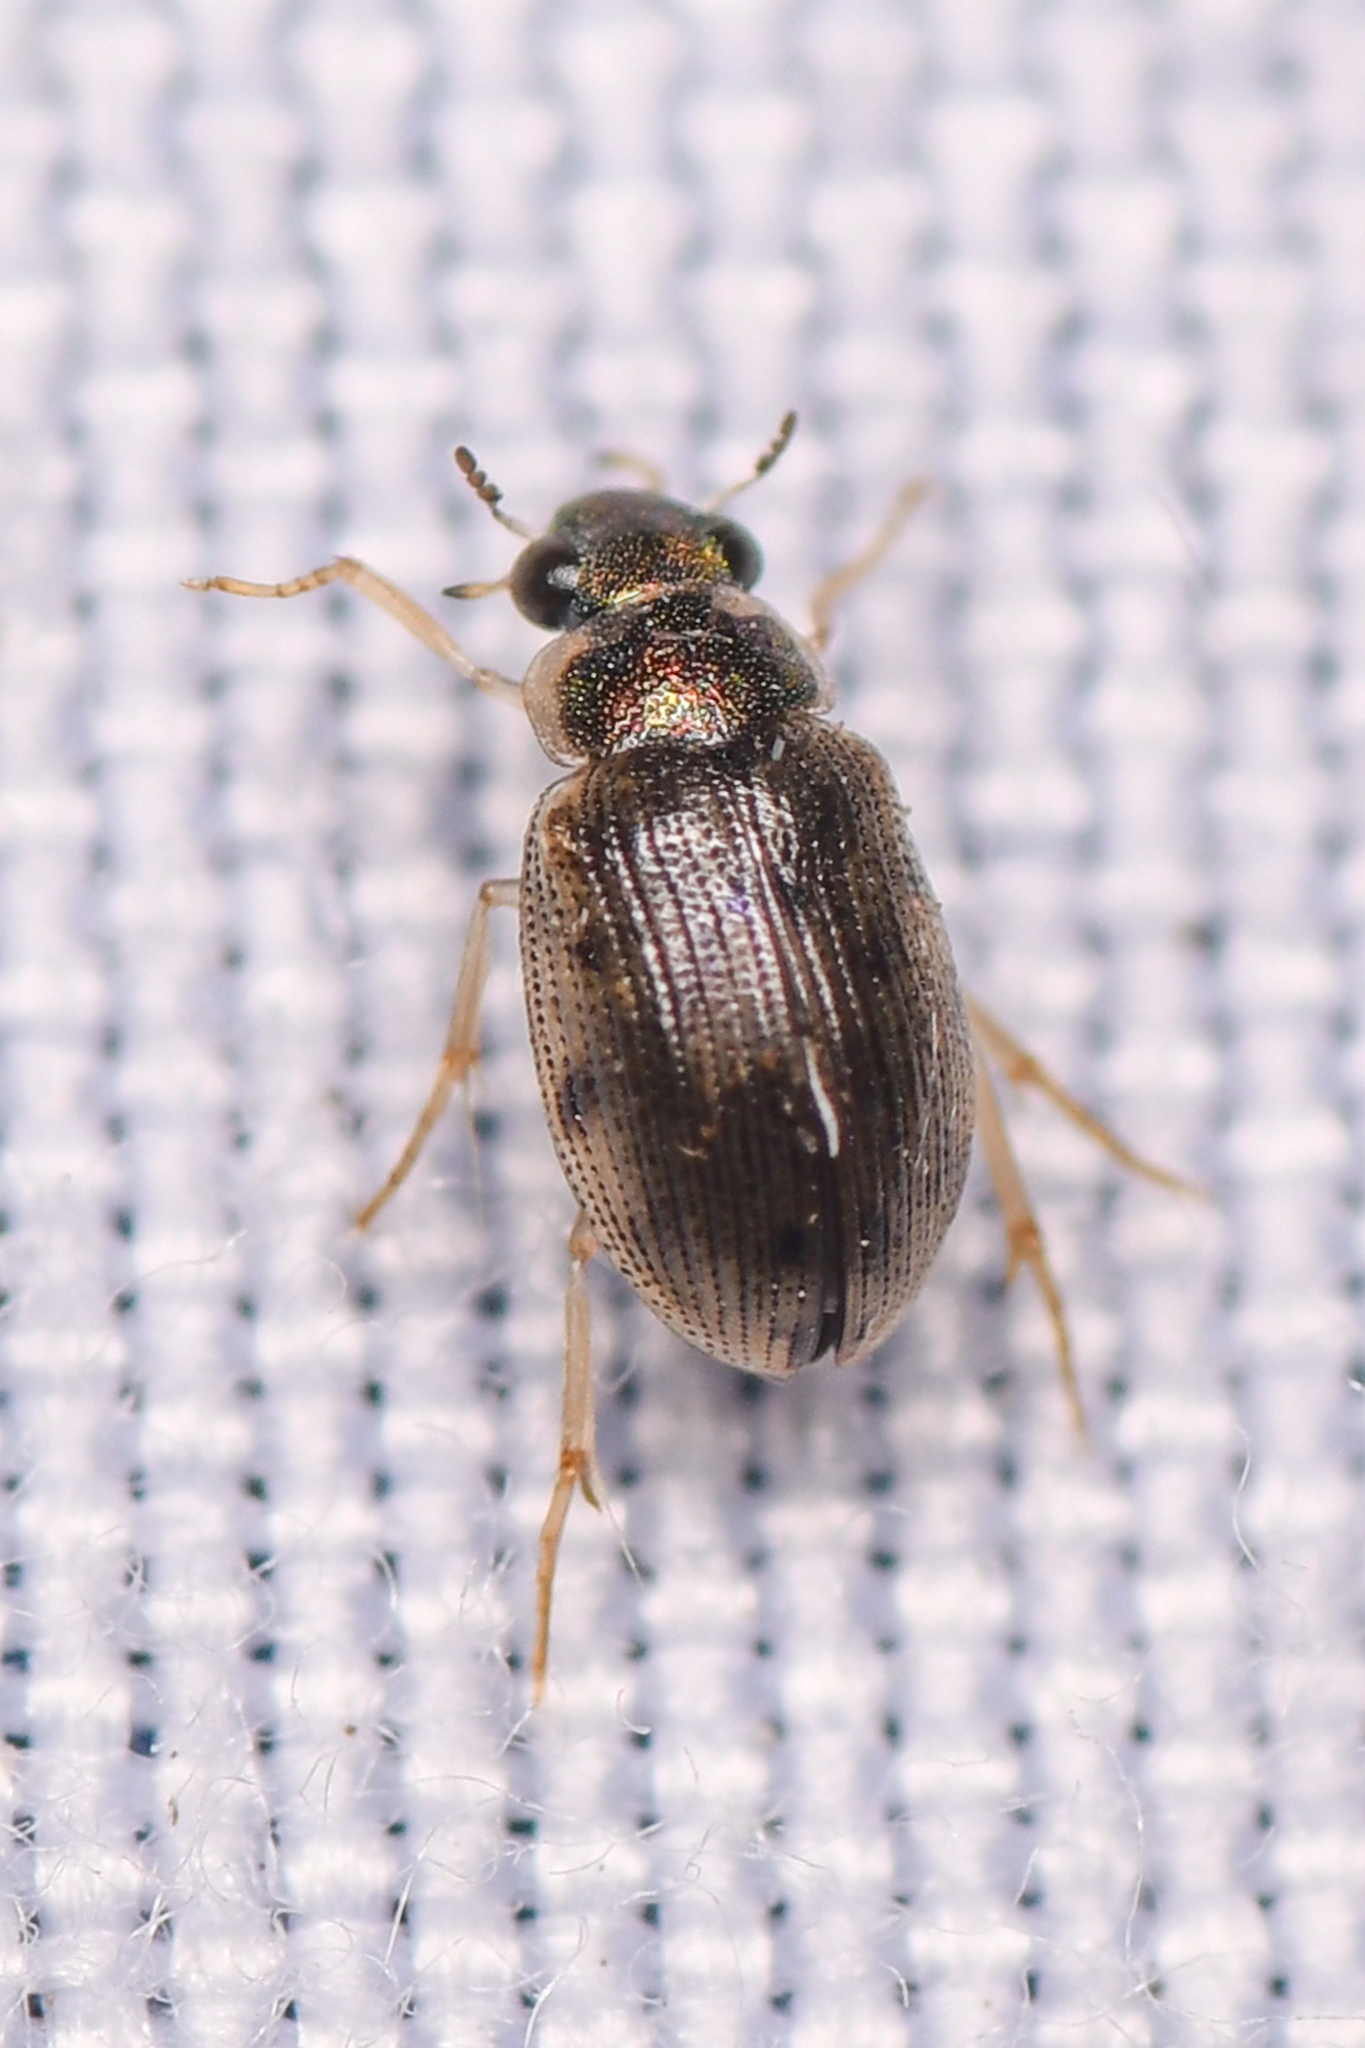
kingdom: Animalia
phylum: Arthropoda
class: Insecta
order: Coleoptera
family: Hydrophilidae
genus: Berosus
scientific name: Berosus
